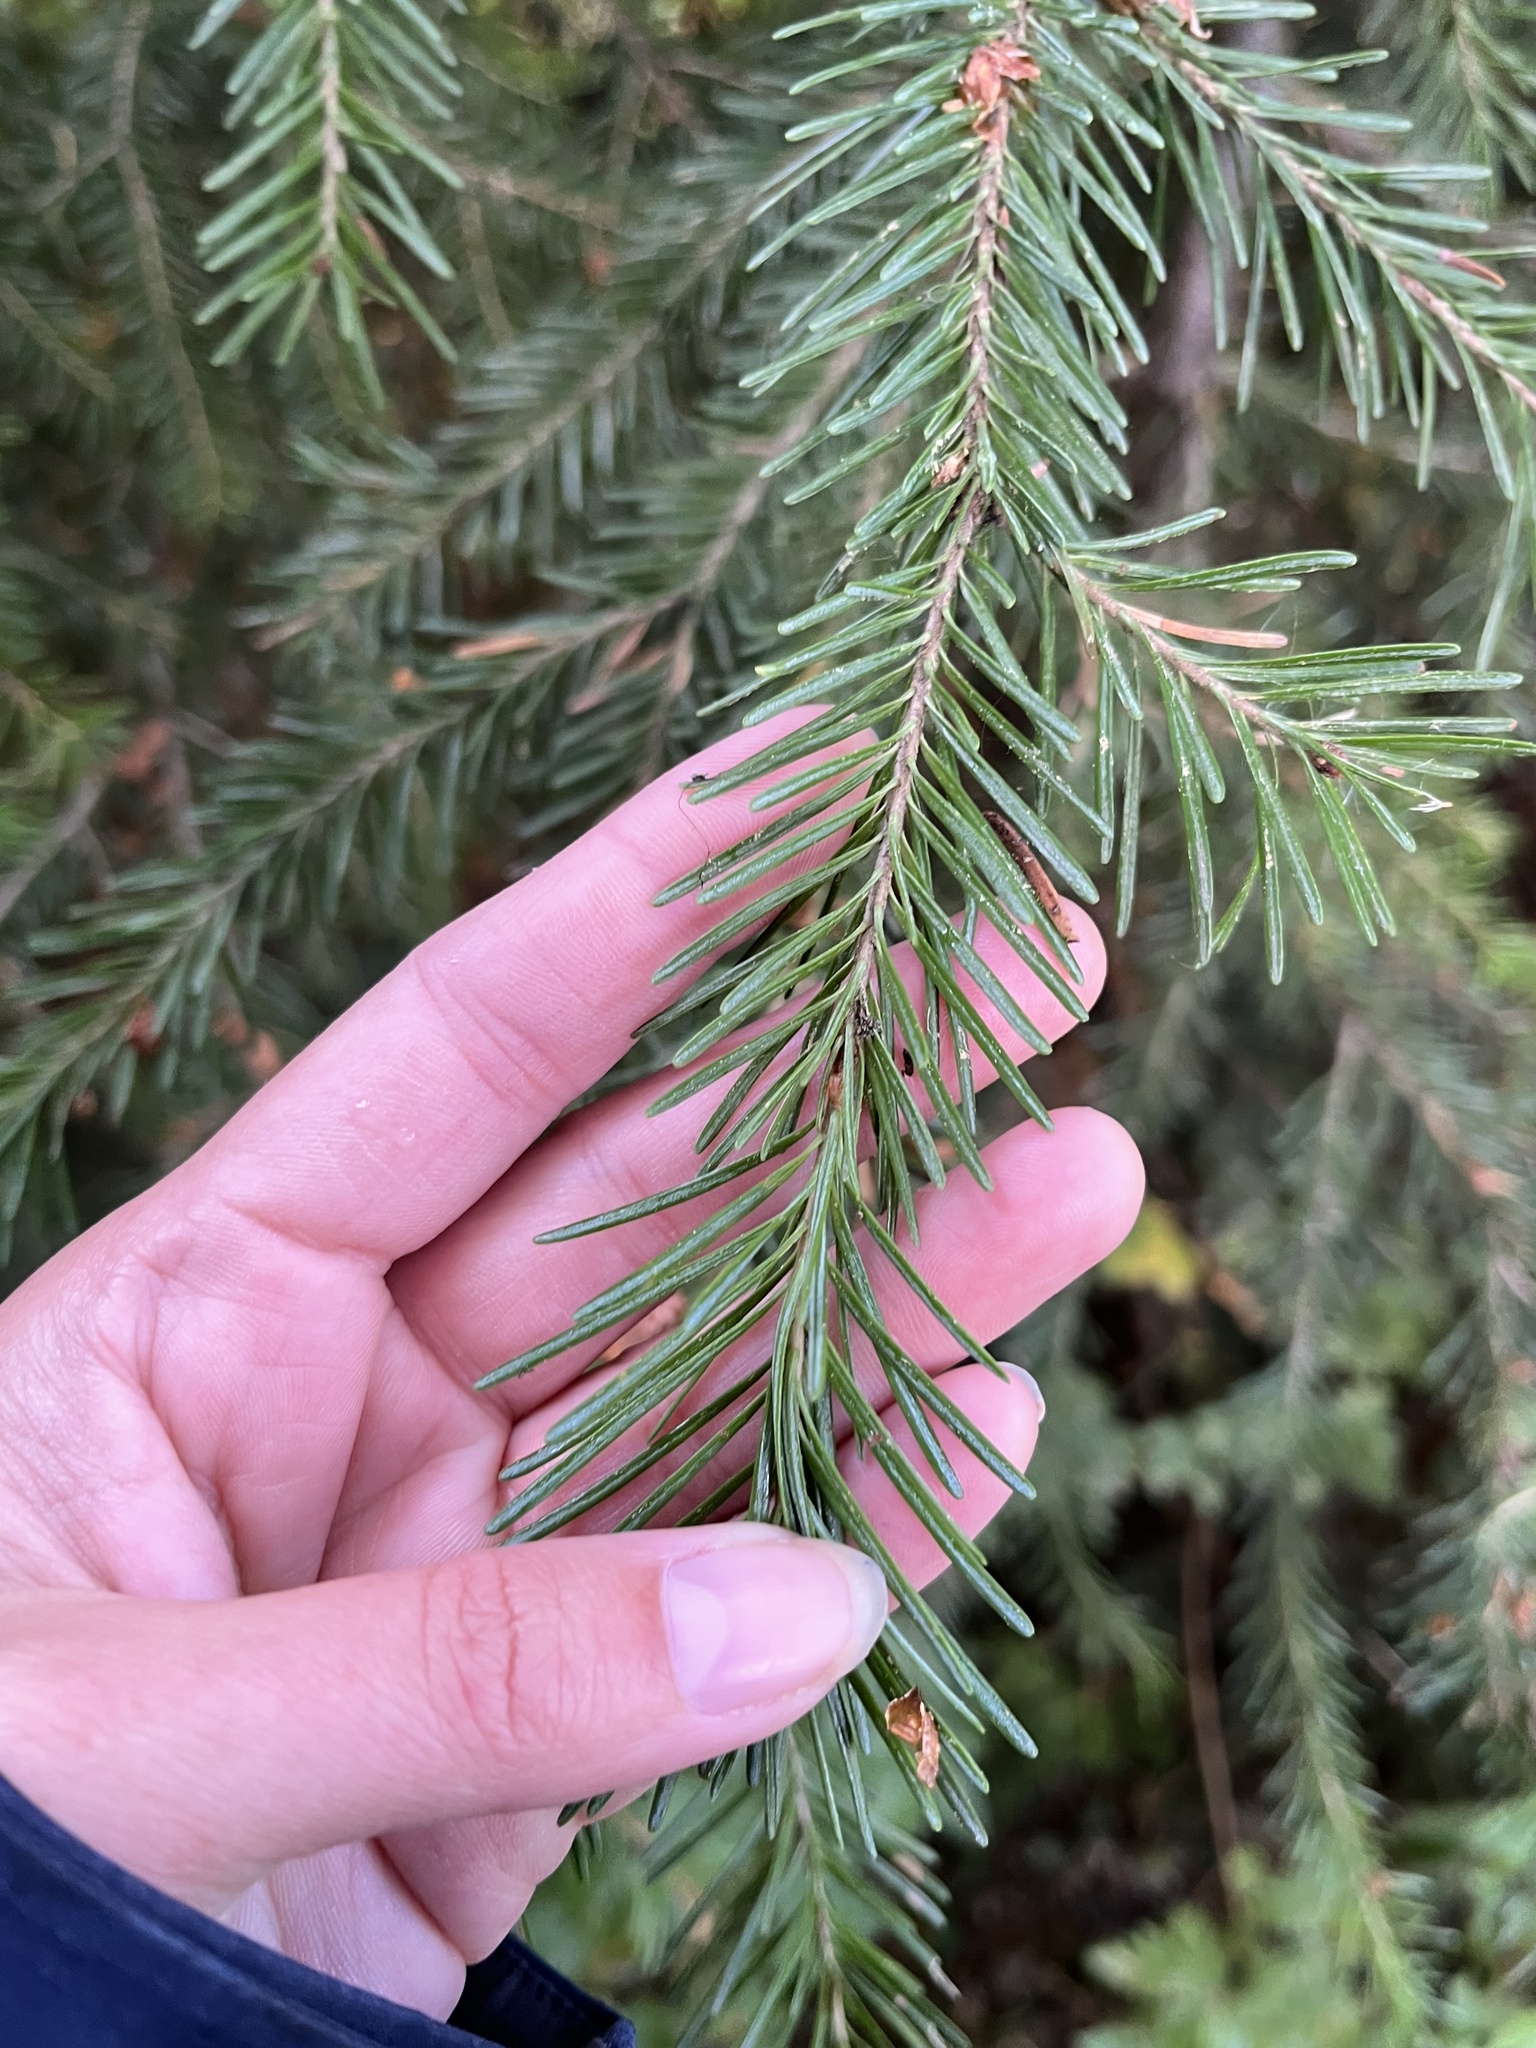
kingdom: Plantae
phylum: Tracheophyta
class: Pinopsida
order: Pinales
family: Pinaceae
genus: Abies
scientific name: Abies lasiocarpa
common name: Subalpine fir
